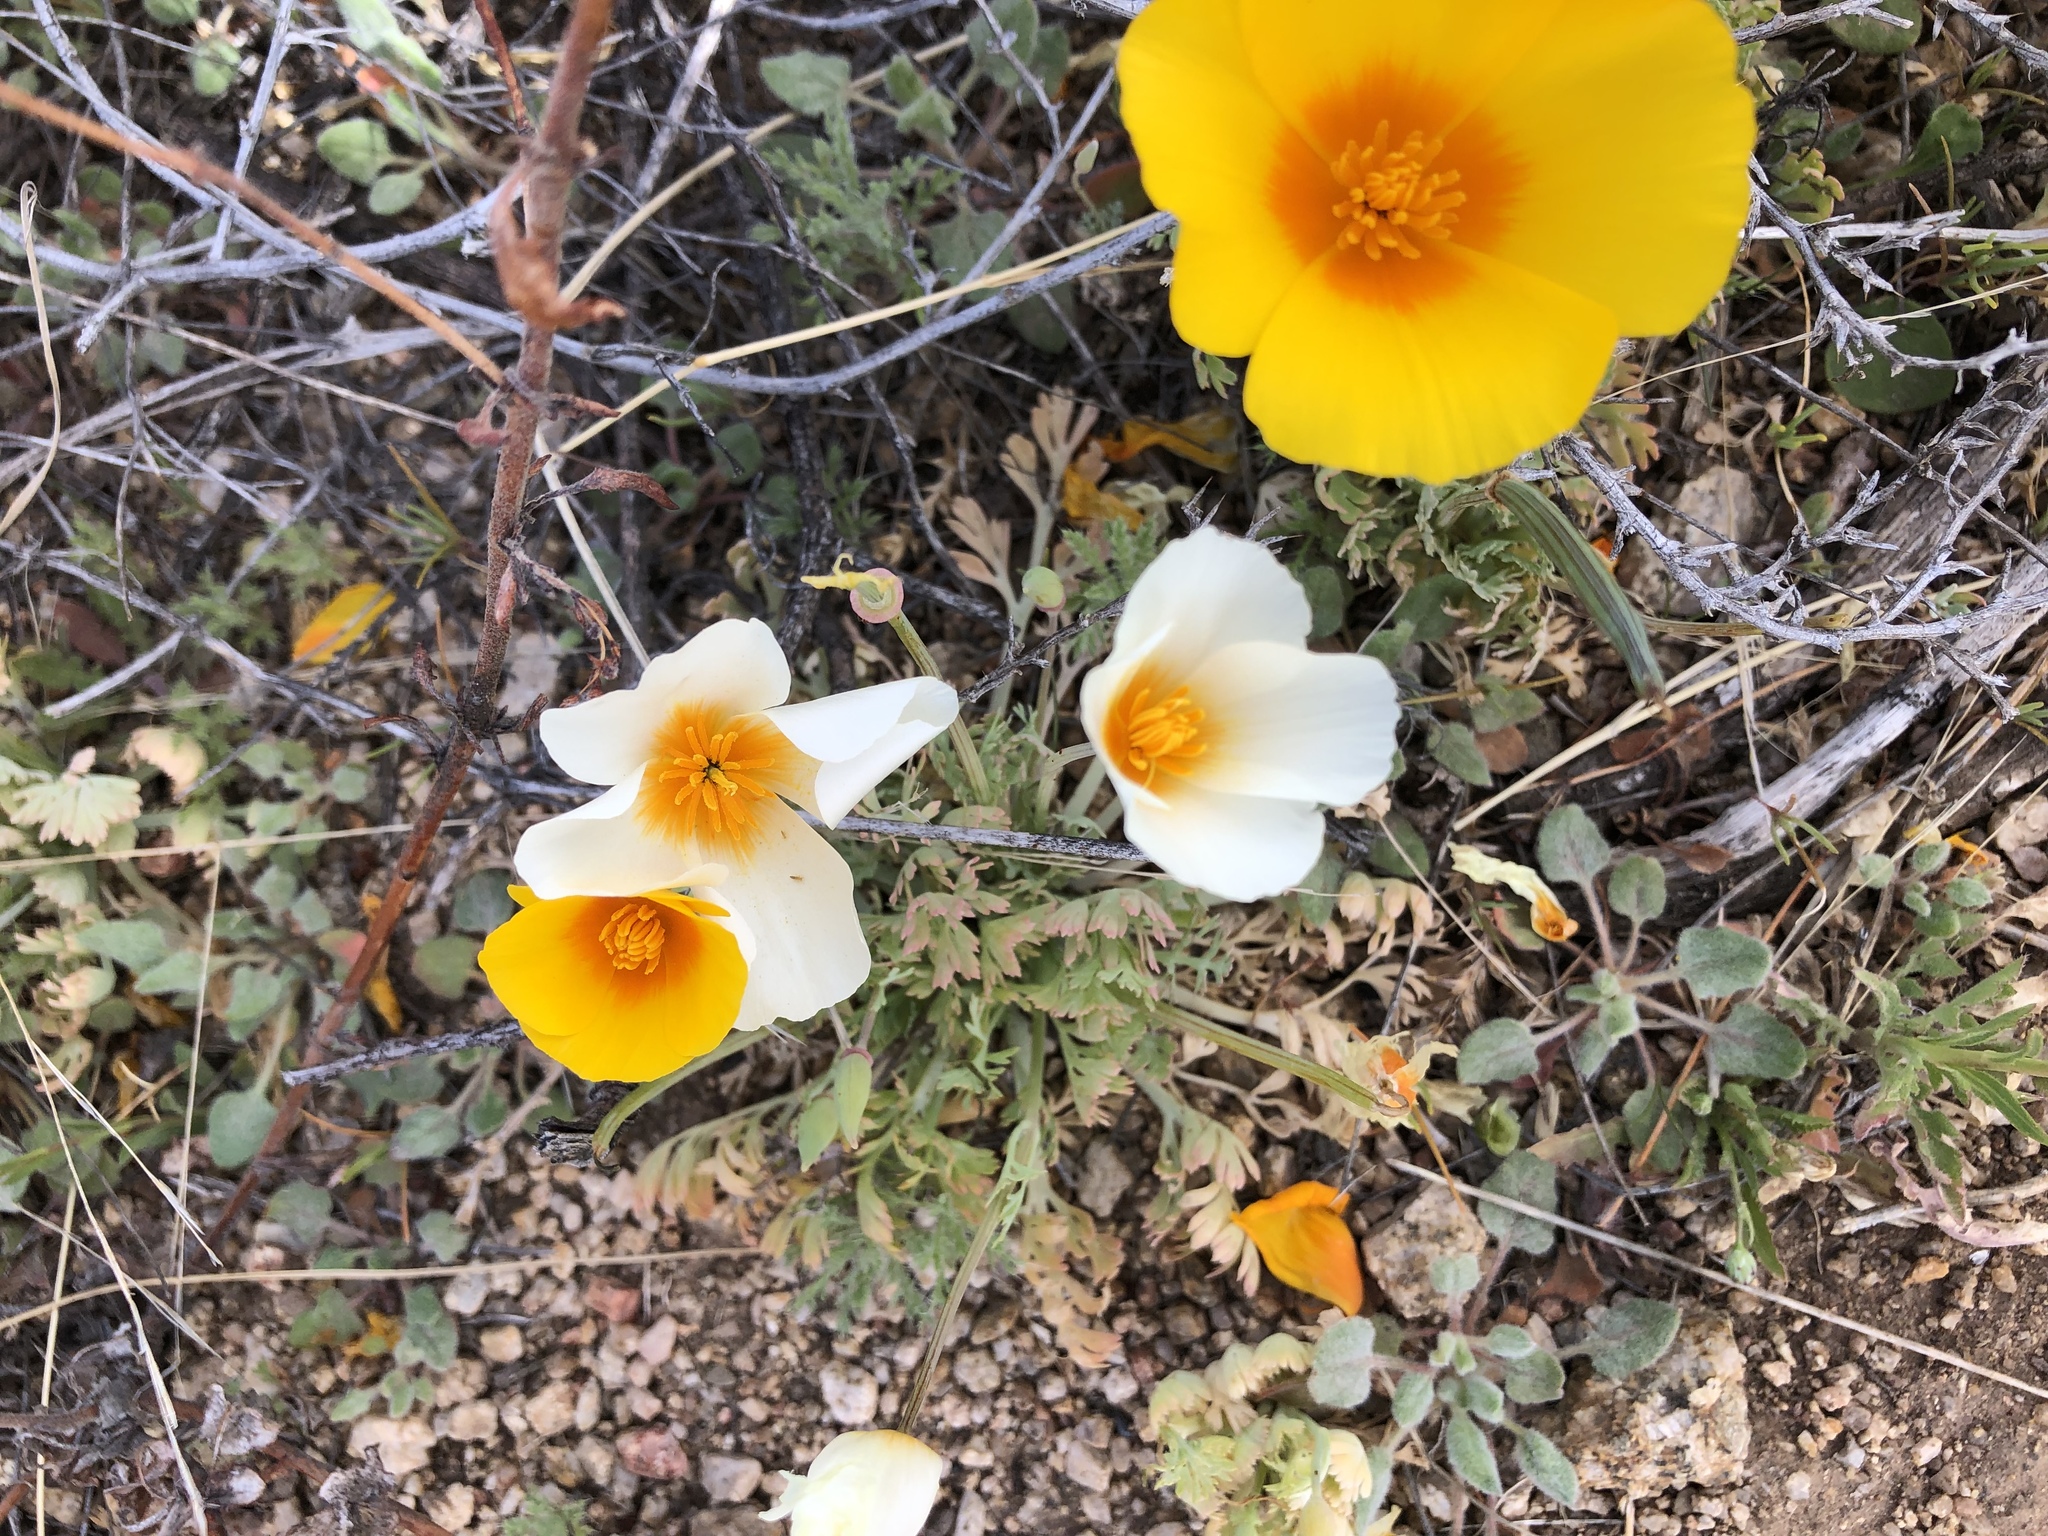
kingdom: Plantae
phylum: Tracheophyta
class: Magnoliopsida
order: Ranunculales
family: Papaveraceae
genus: Eschscholzia
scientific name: Eschscholzia californica
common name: California poppy
